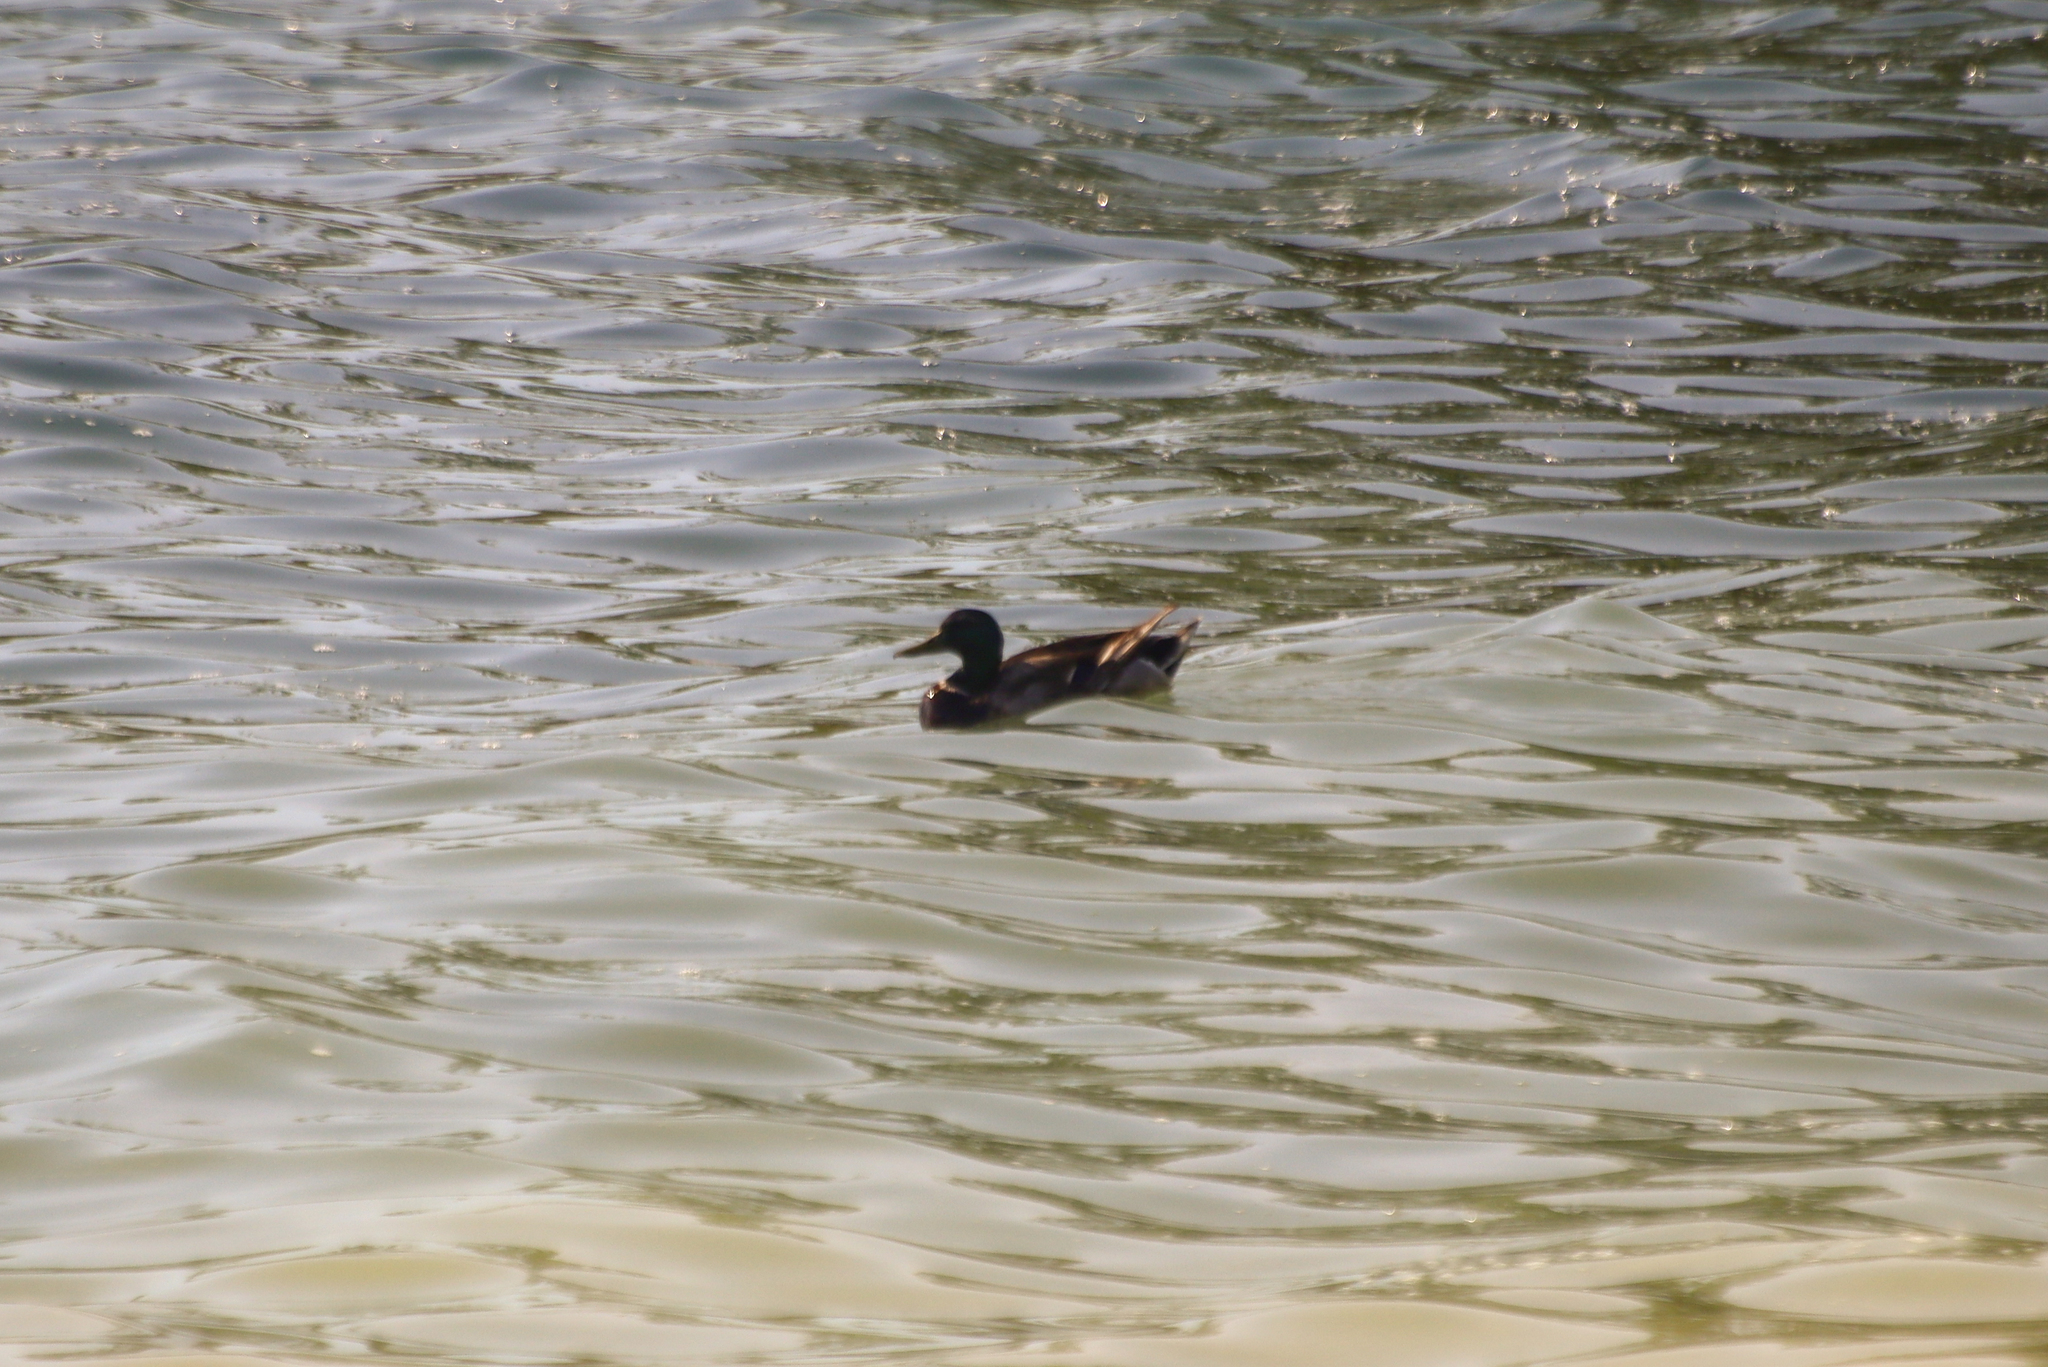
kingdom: Animalia
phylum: Chordata
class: Aves
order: Anseriformes
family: Anatidae
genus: Anas
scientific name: Anas platyrhynchos
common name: Mallard
